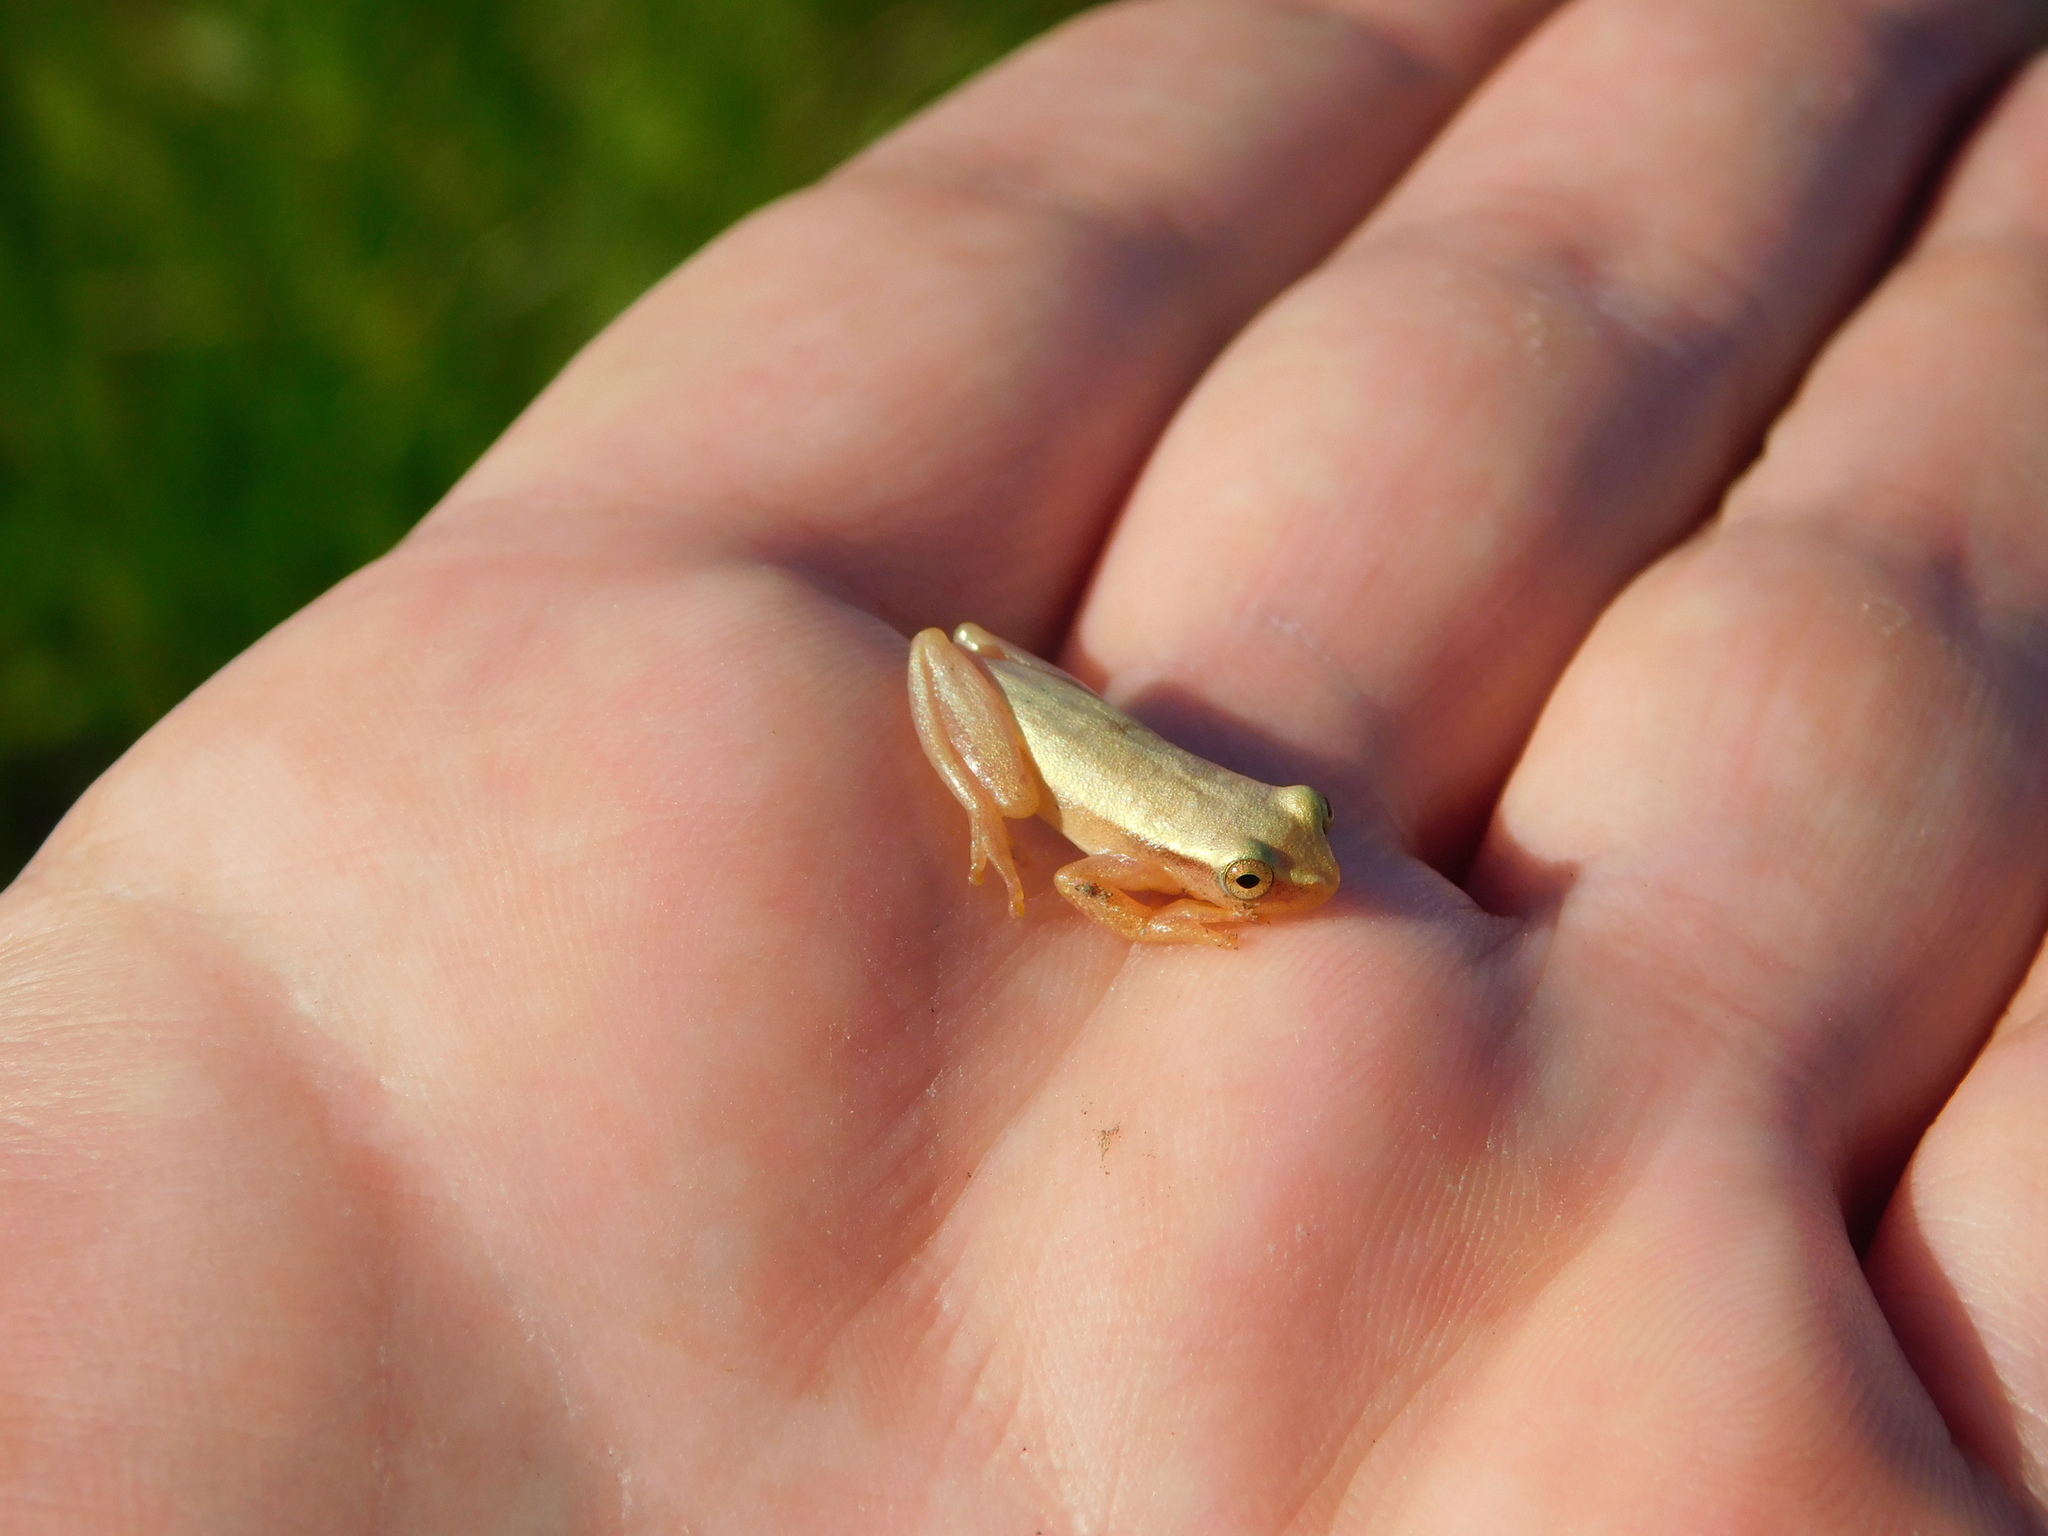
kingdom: Animalia
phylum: Chordata
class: Amphibia
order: Anura
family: Hylidae
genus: Dendropsophus
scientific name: Dendropsophus nanus
